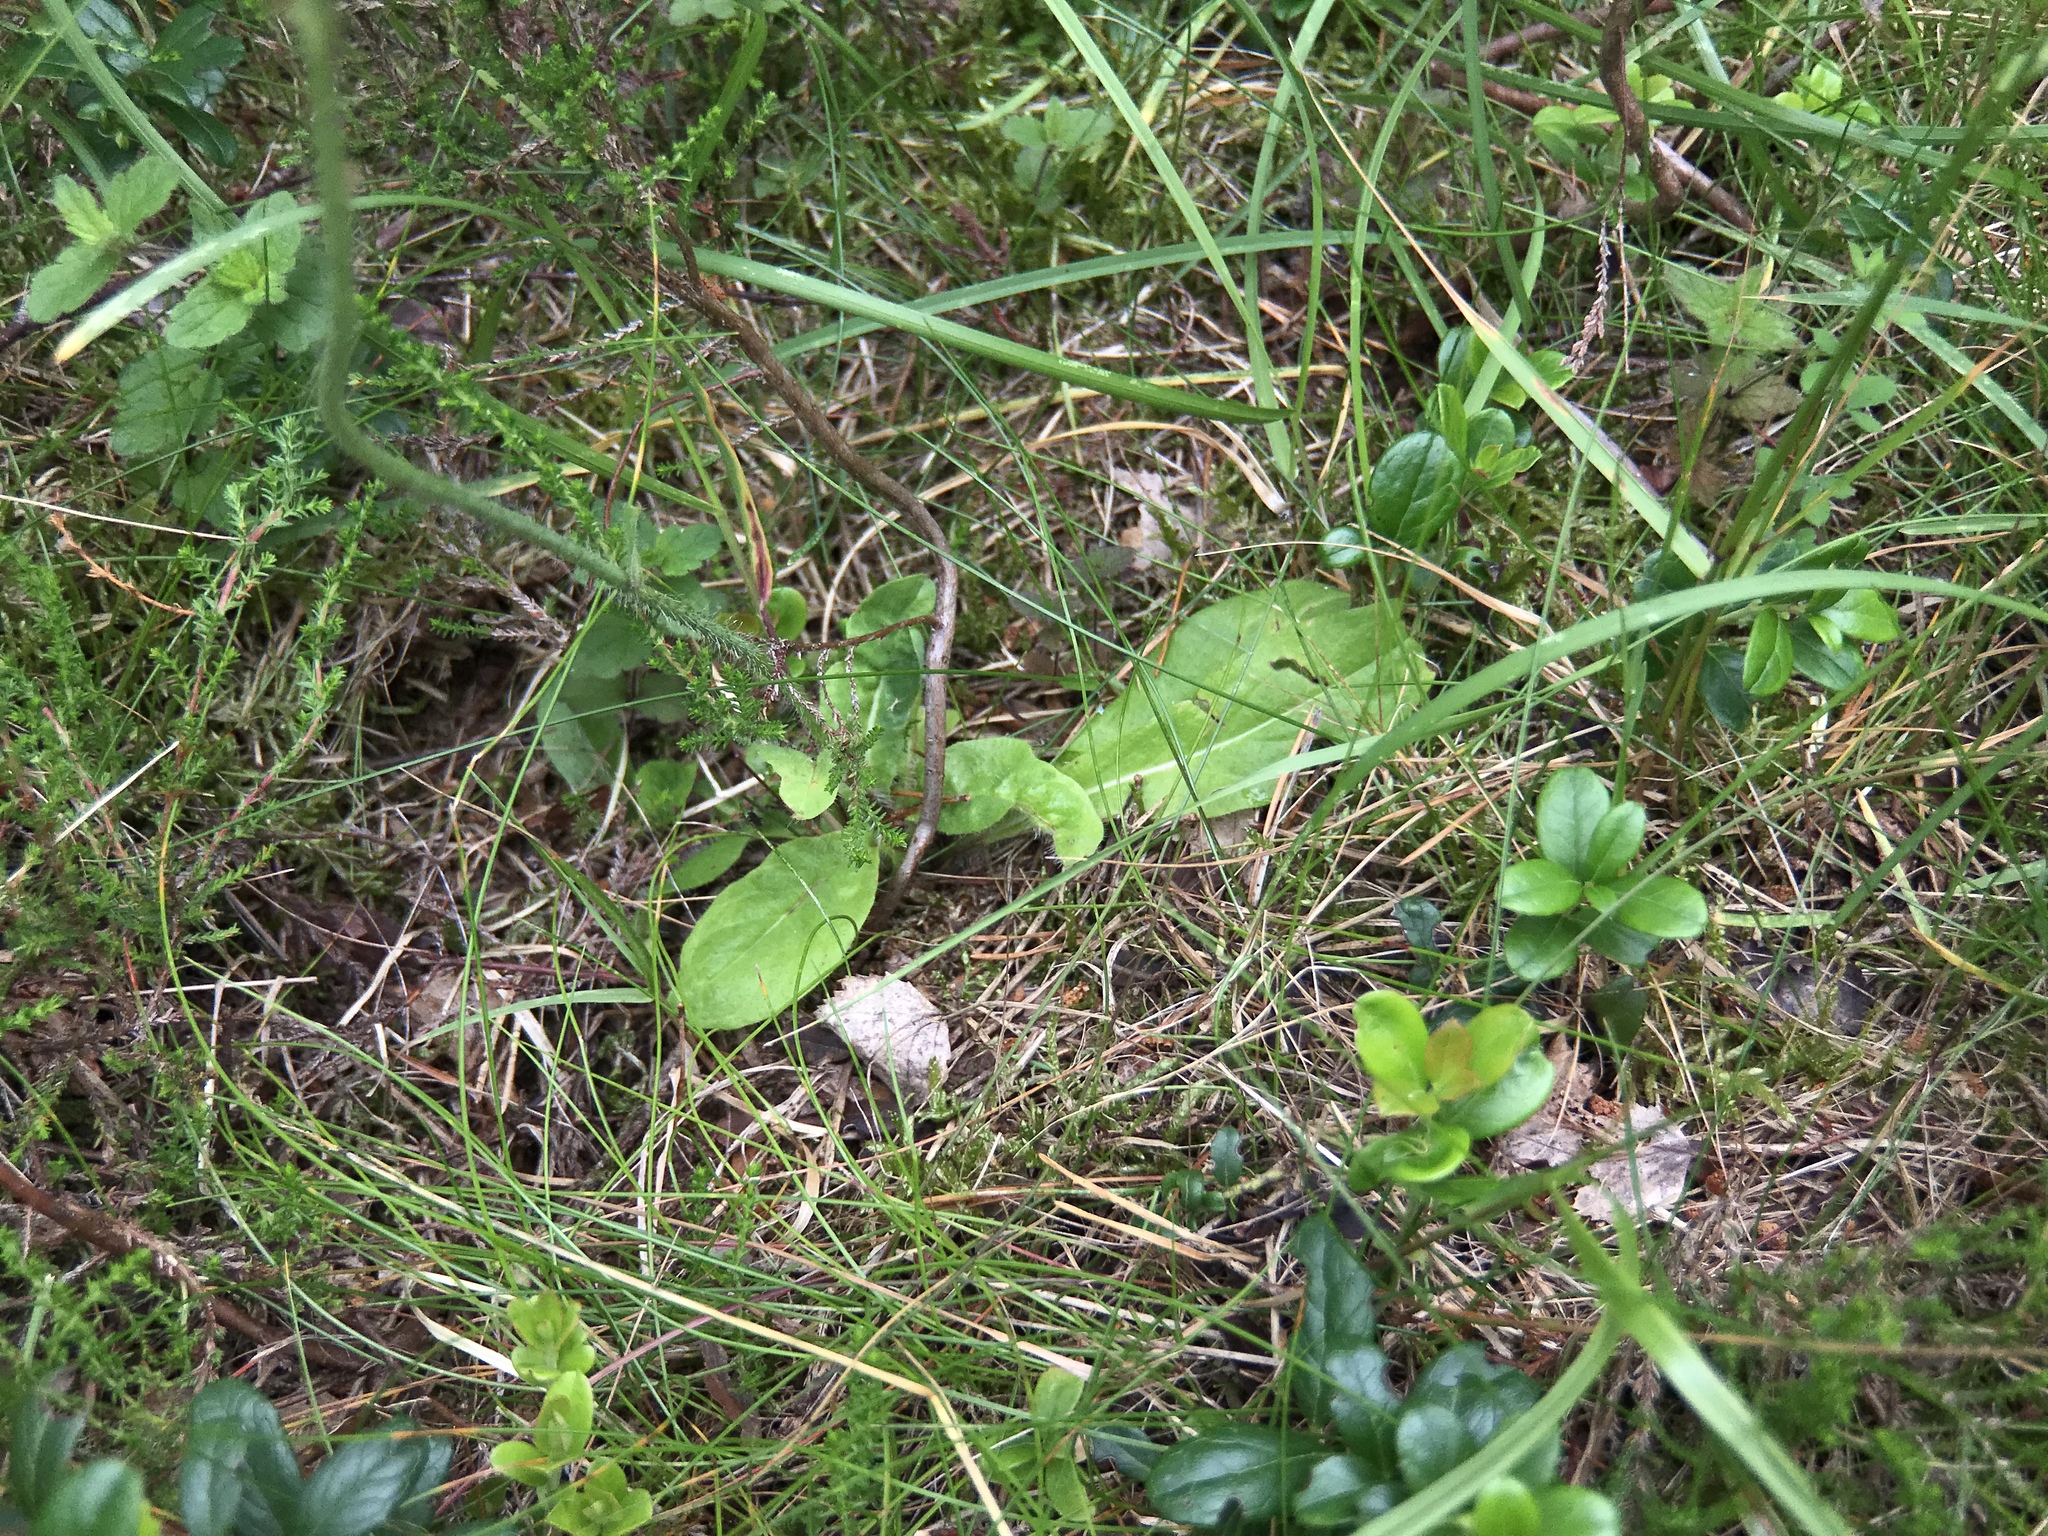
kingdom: Plantae
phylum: Tracheophyta
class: Magnoliopsida
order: Asterales
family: Asteraceae
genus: Pilosella
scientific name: Pilosella aurantiaca
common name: Fox-and-cubs
